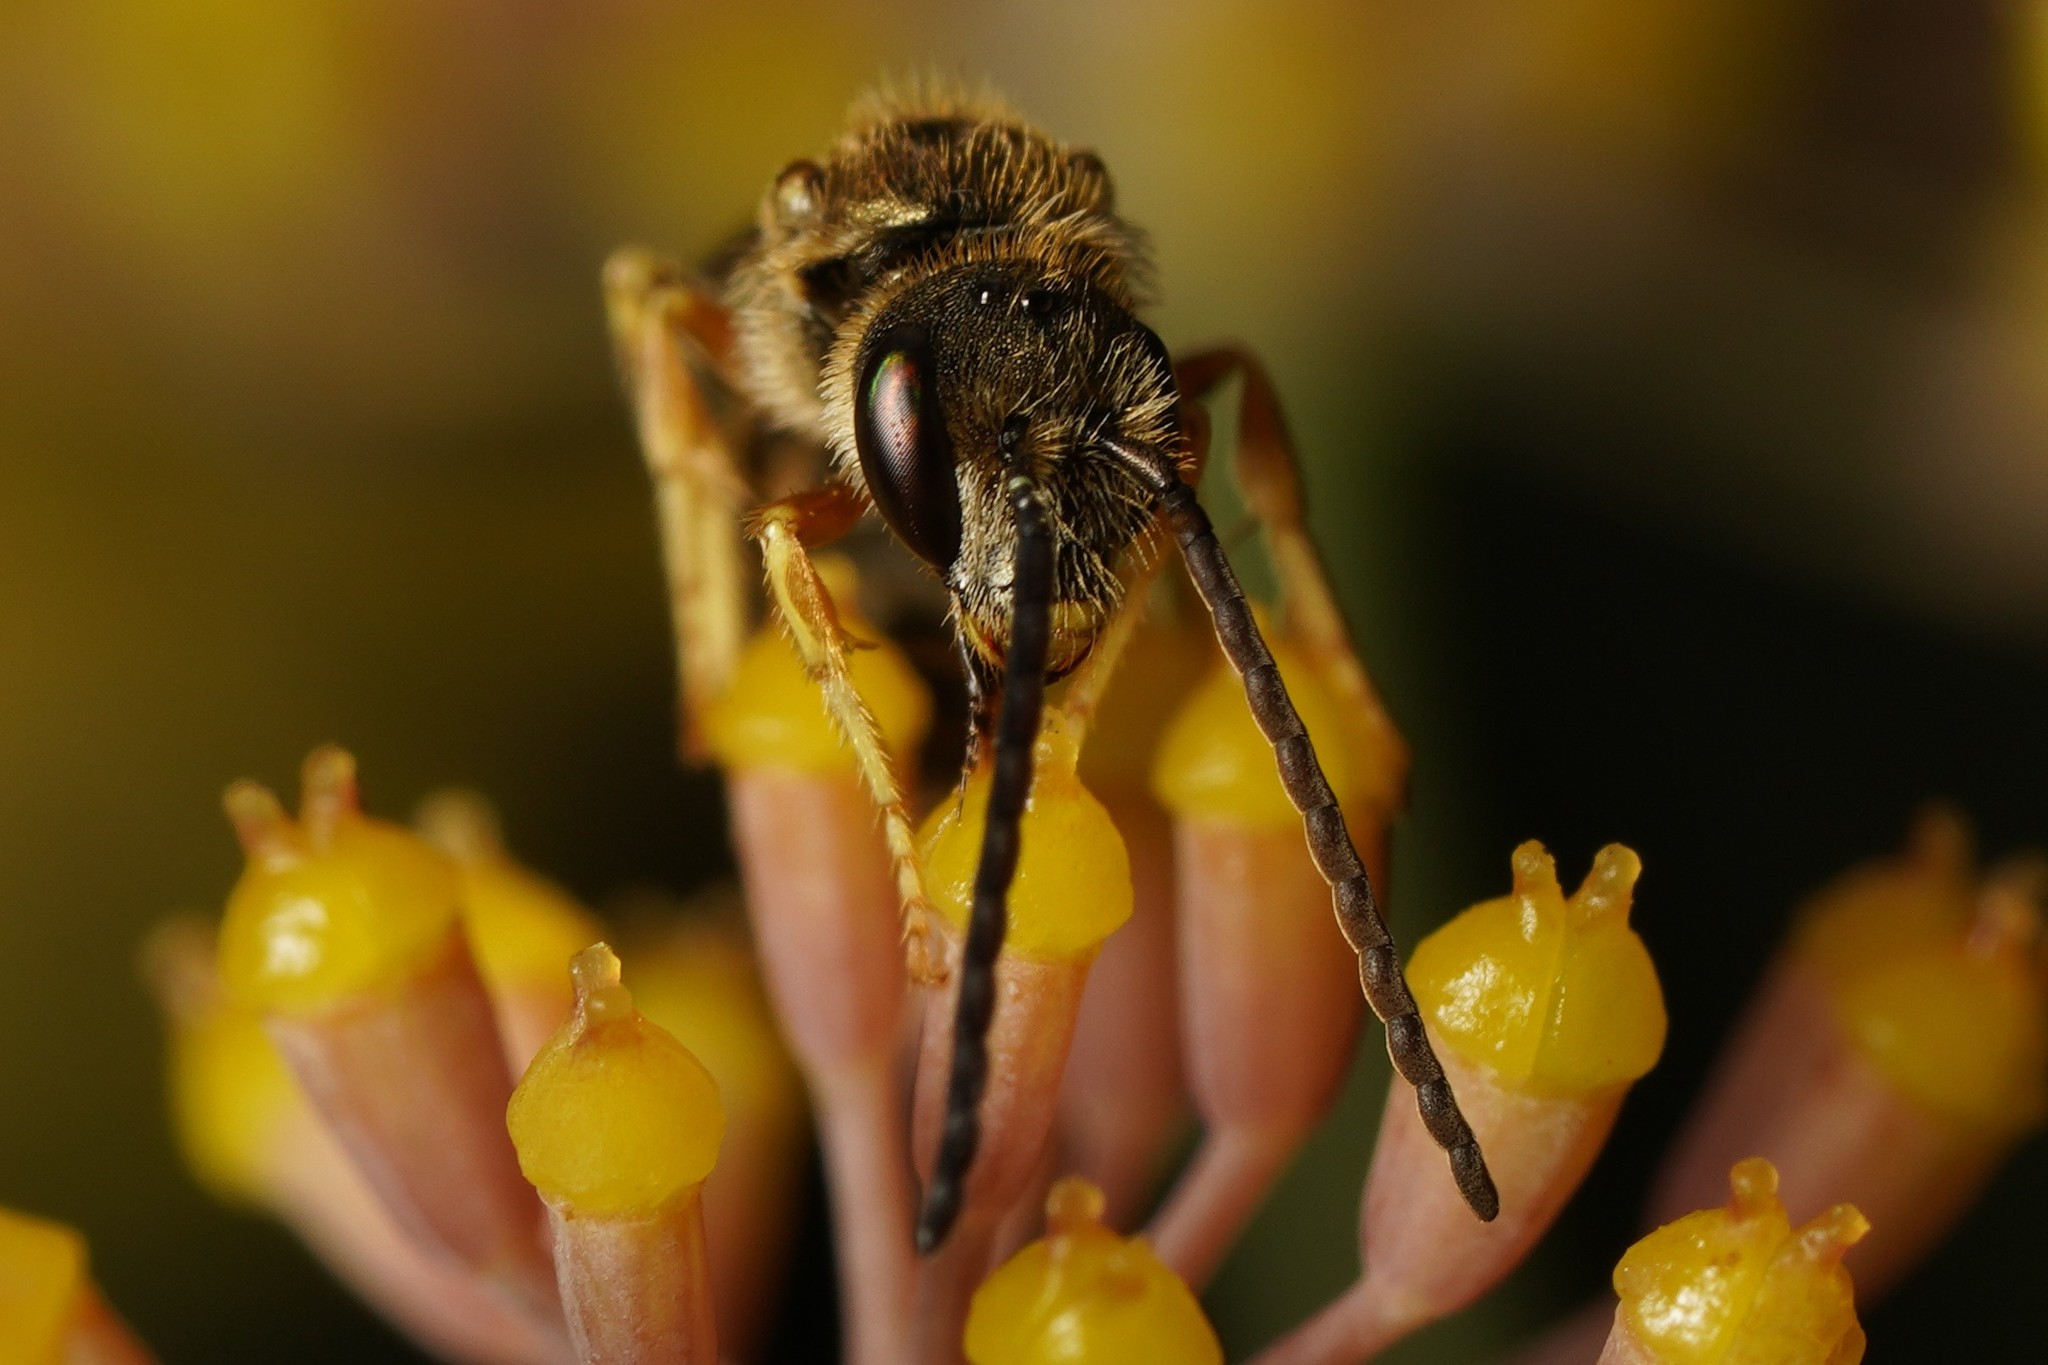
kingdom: Animalia
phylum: Arthropoda
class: Insecta
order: Hymenoptera
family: Halictidae
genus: Halictus
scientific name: Halictus confusus
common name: Southern bronze furrow bee
